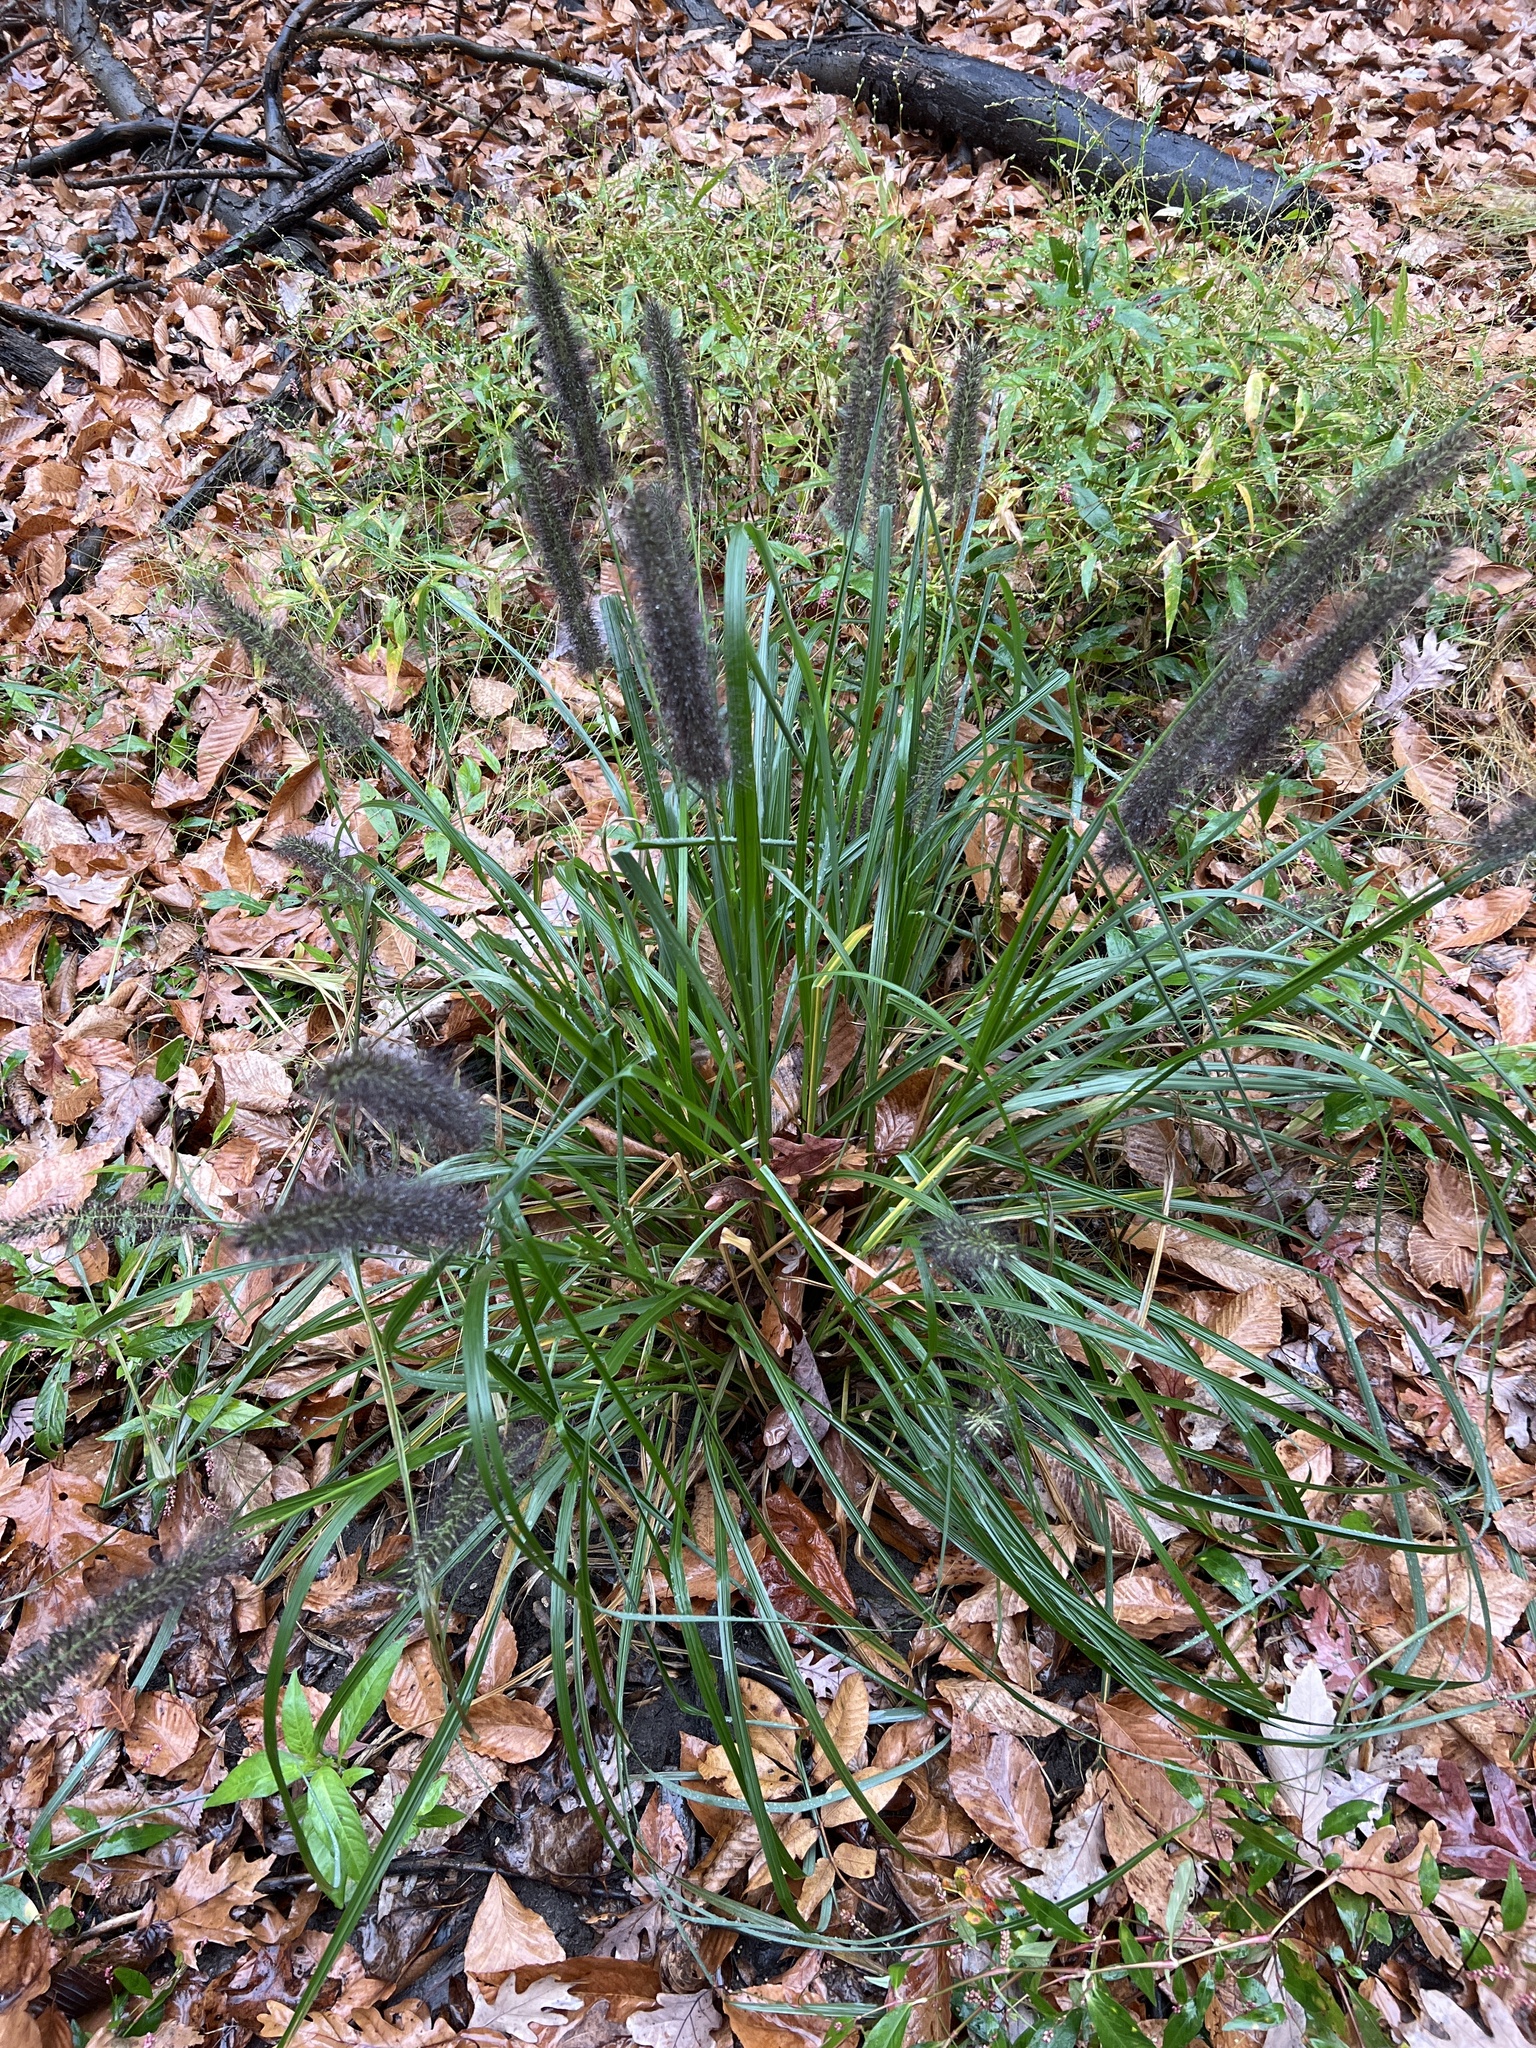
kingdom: Plantae
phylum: Tracheophyta
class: Liliopsida
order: Poales
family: Poaceae
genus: Cenchrus
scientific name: Cenchrus alopecuroides
